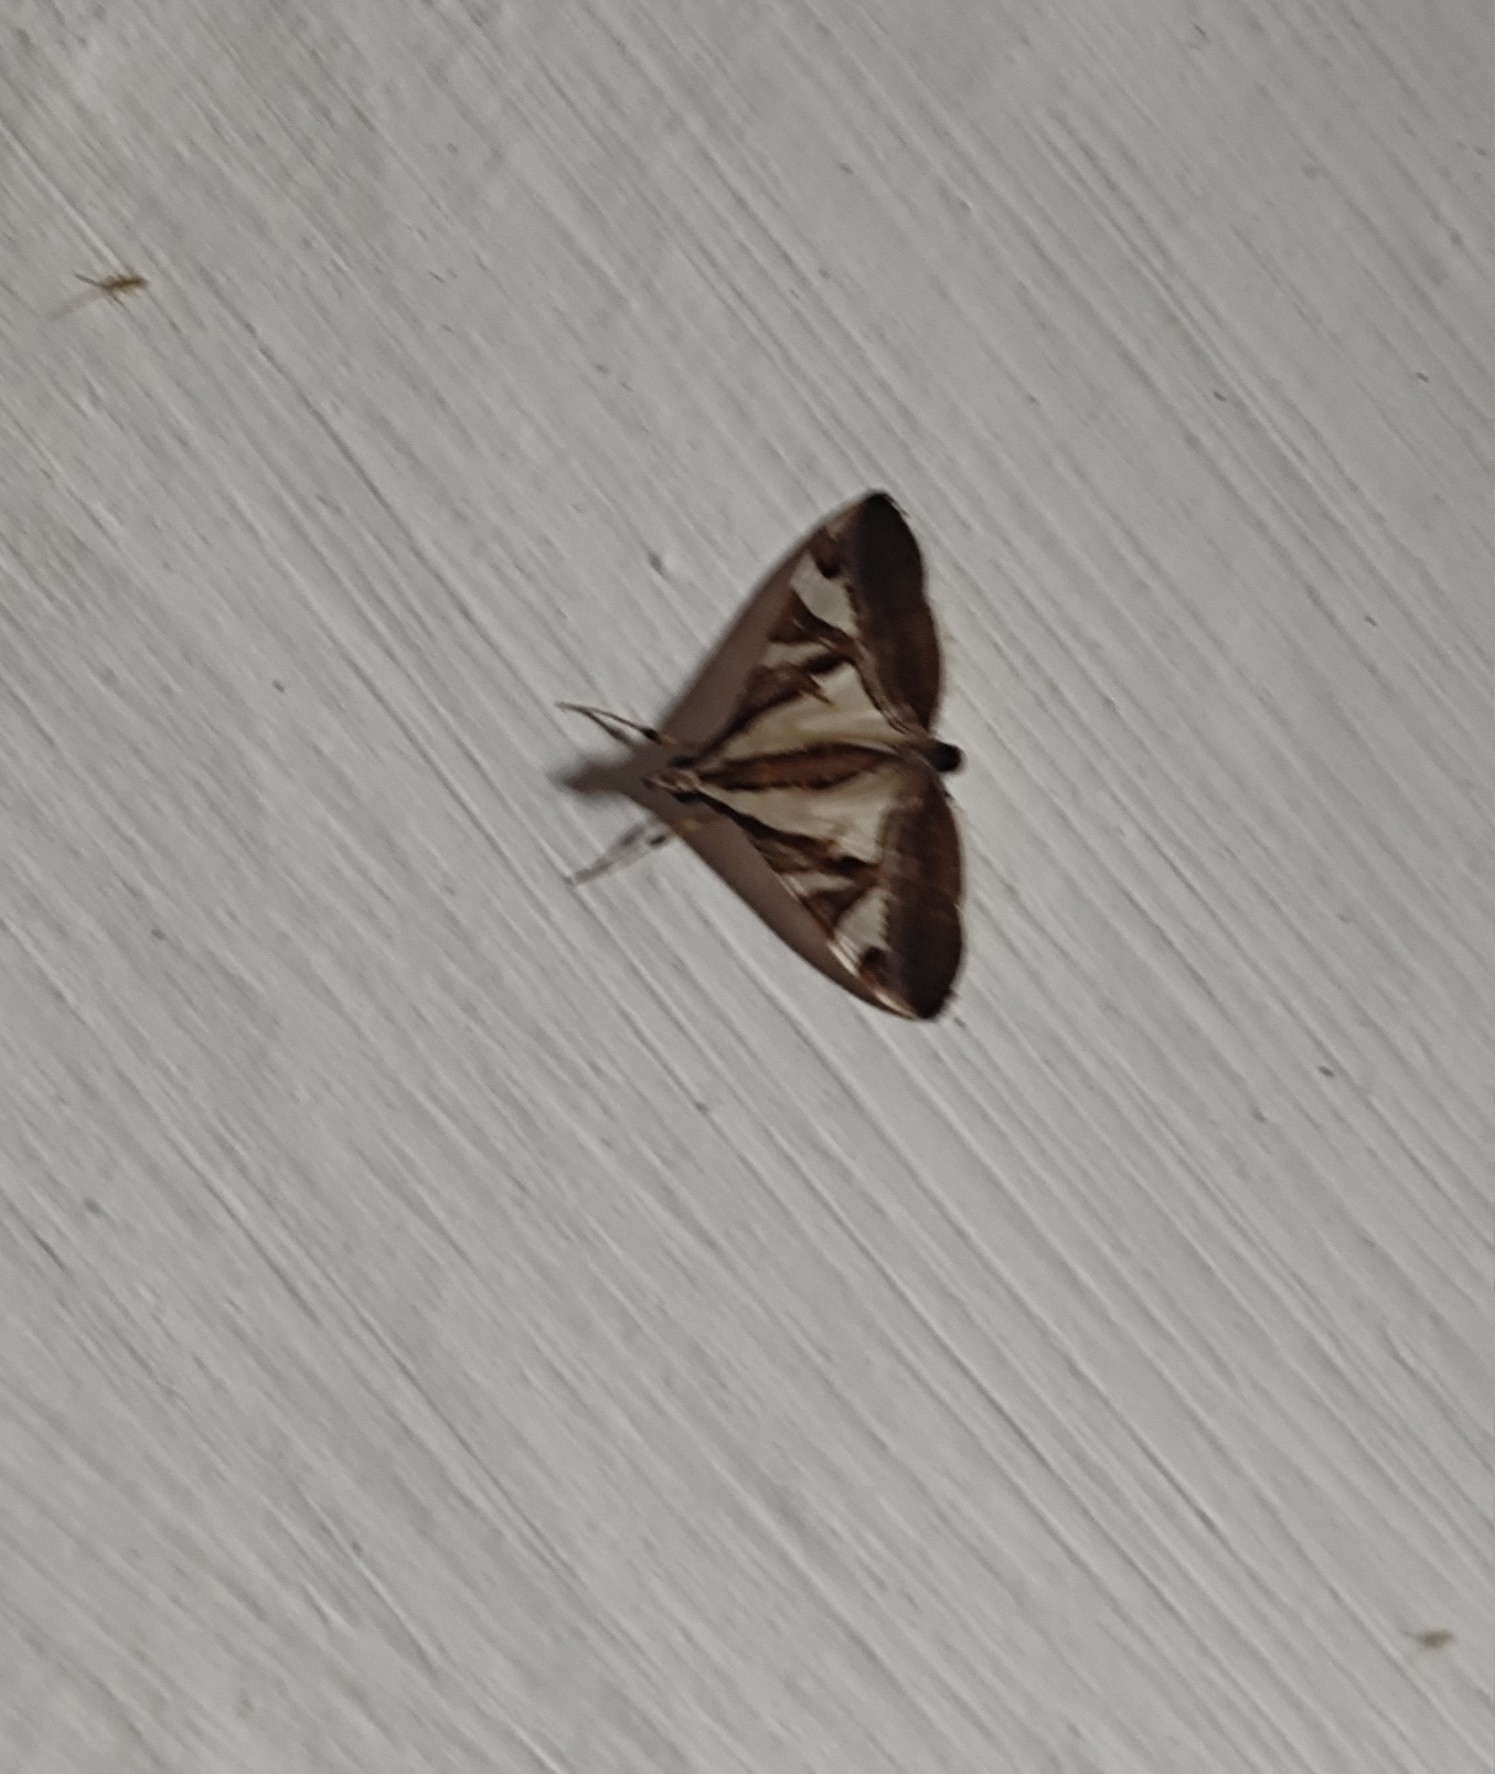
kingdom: Animalia
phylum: Arthropoda
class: Insecta
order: Lepidoptera
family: Crambidae
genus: Agrioglypta
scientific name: Agrioglypta itysalis
